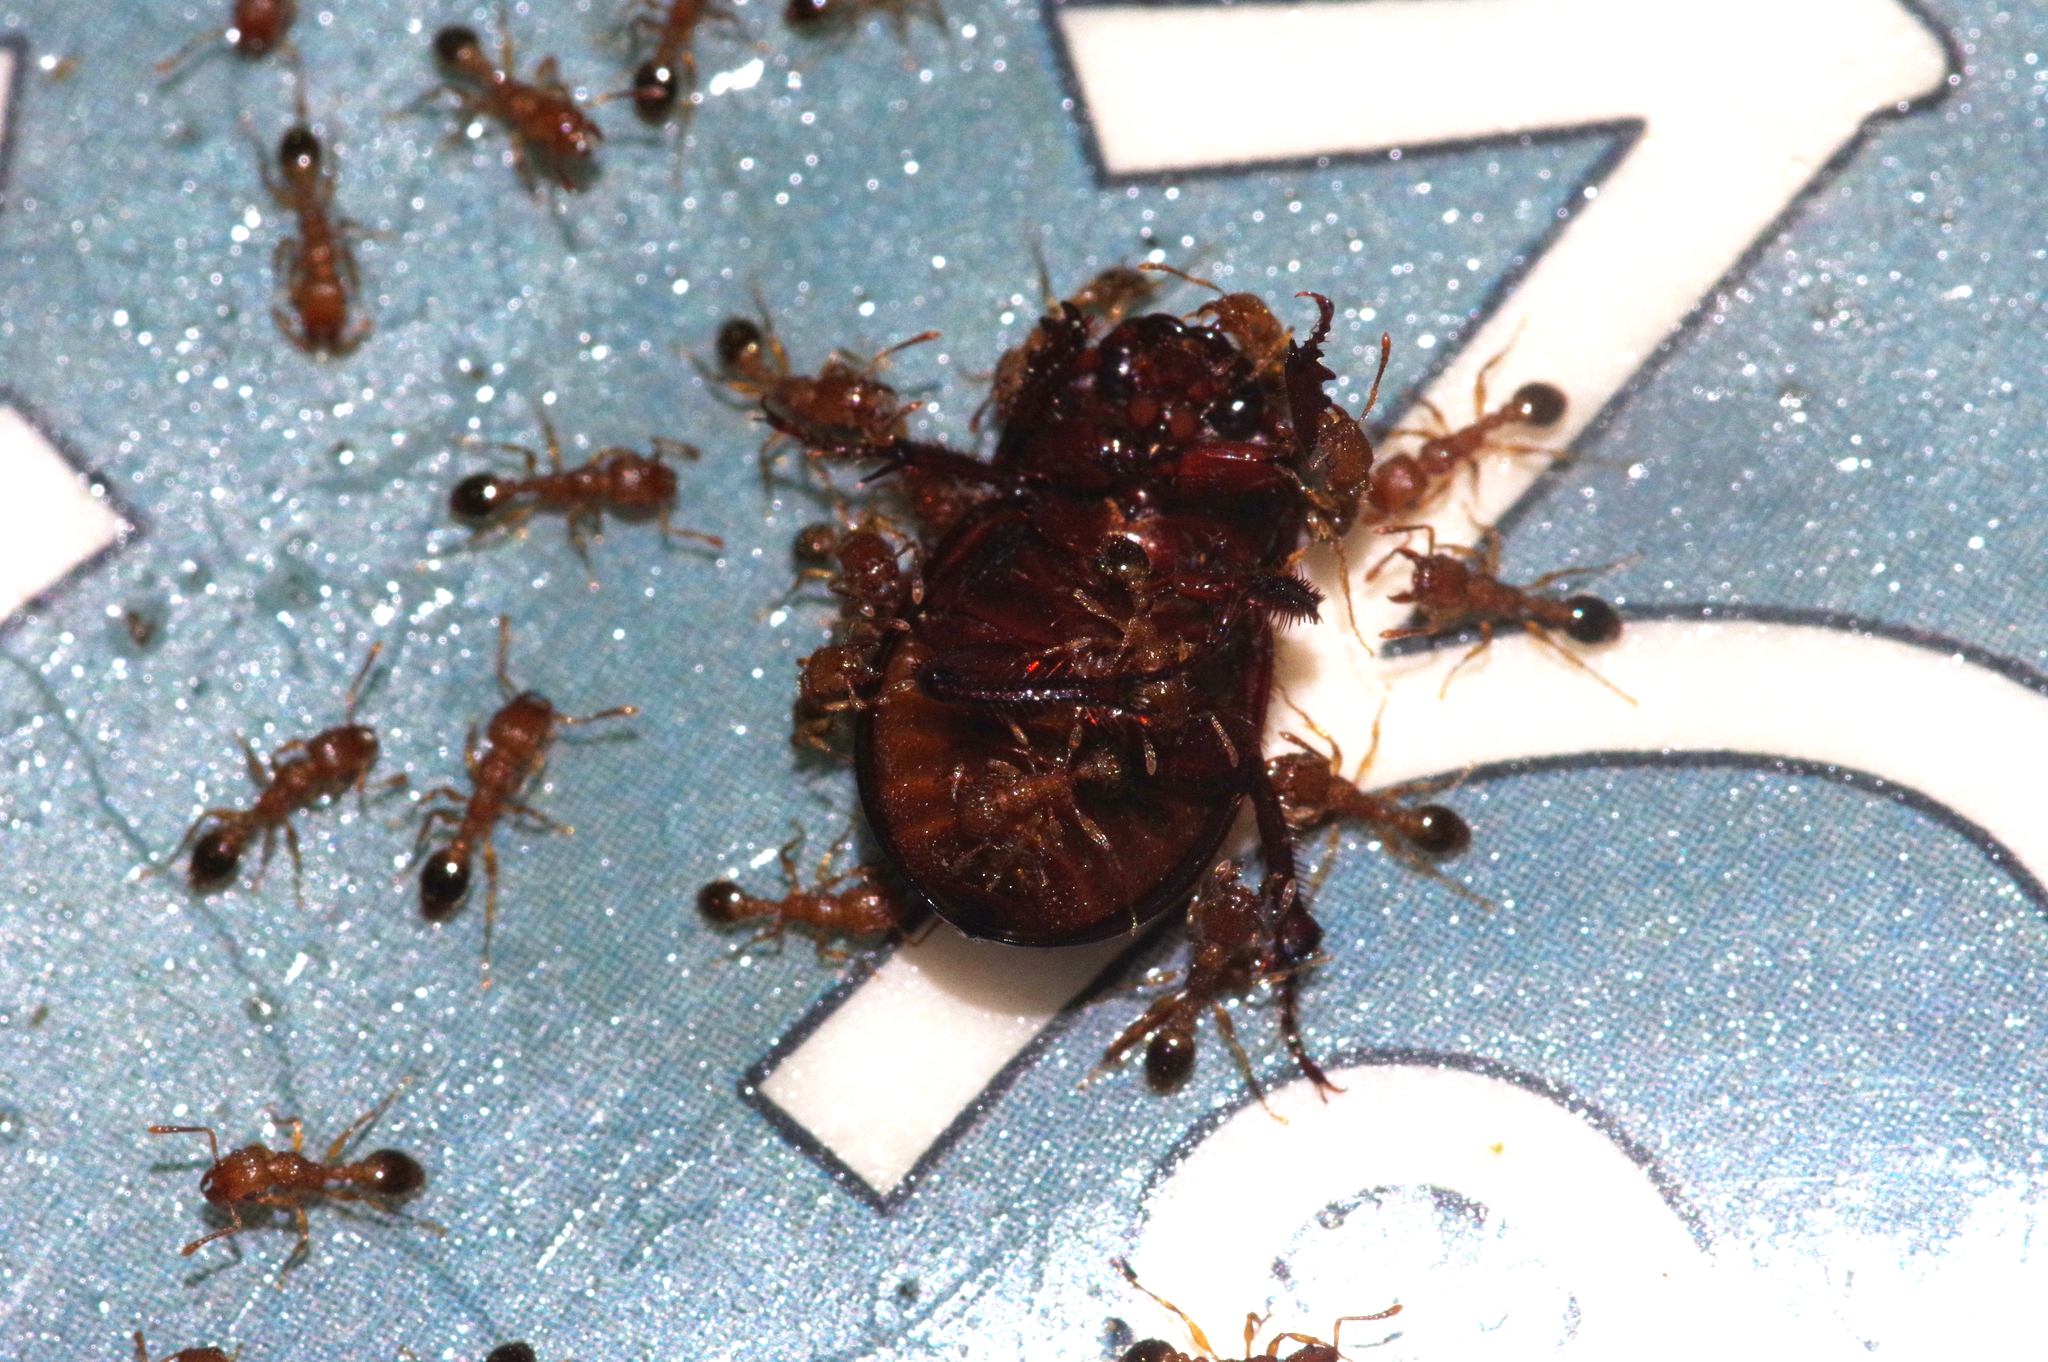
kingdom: Animalia
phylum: Arthropoda
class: Insecta
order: Hymenoptera
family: Formicidae
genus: Tetramorium
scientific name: Tetramorium bicarinatum
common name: Guinea ant
